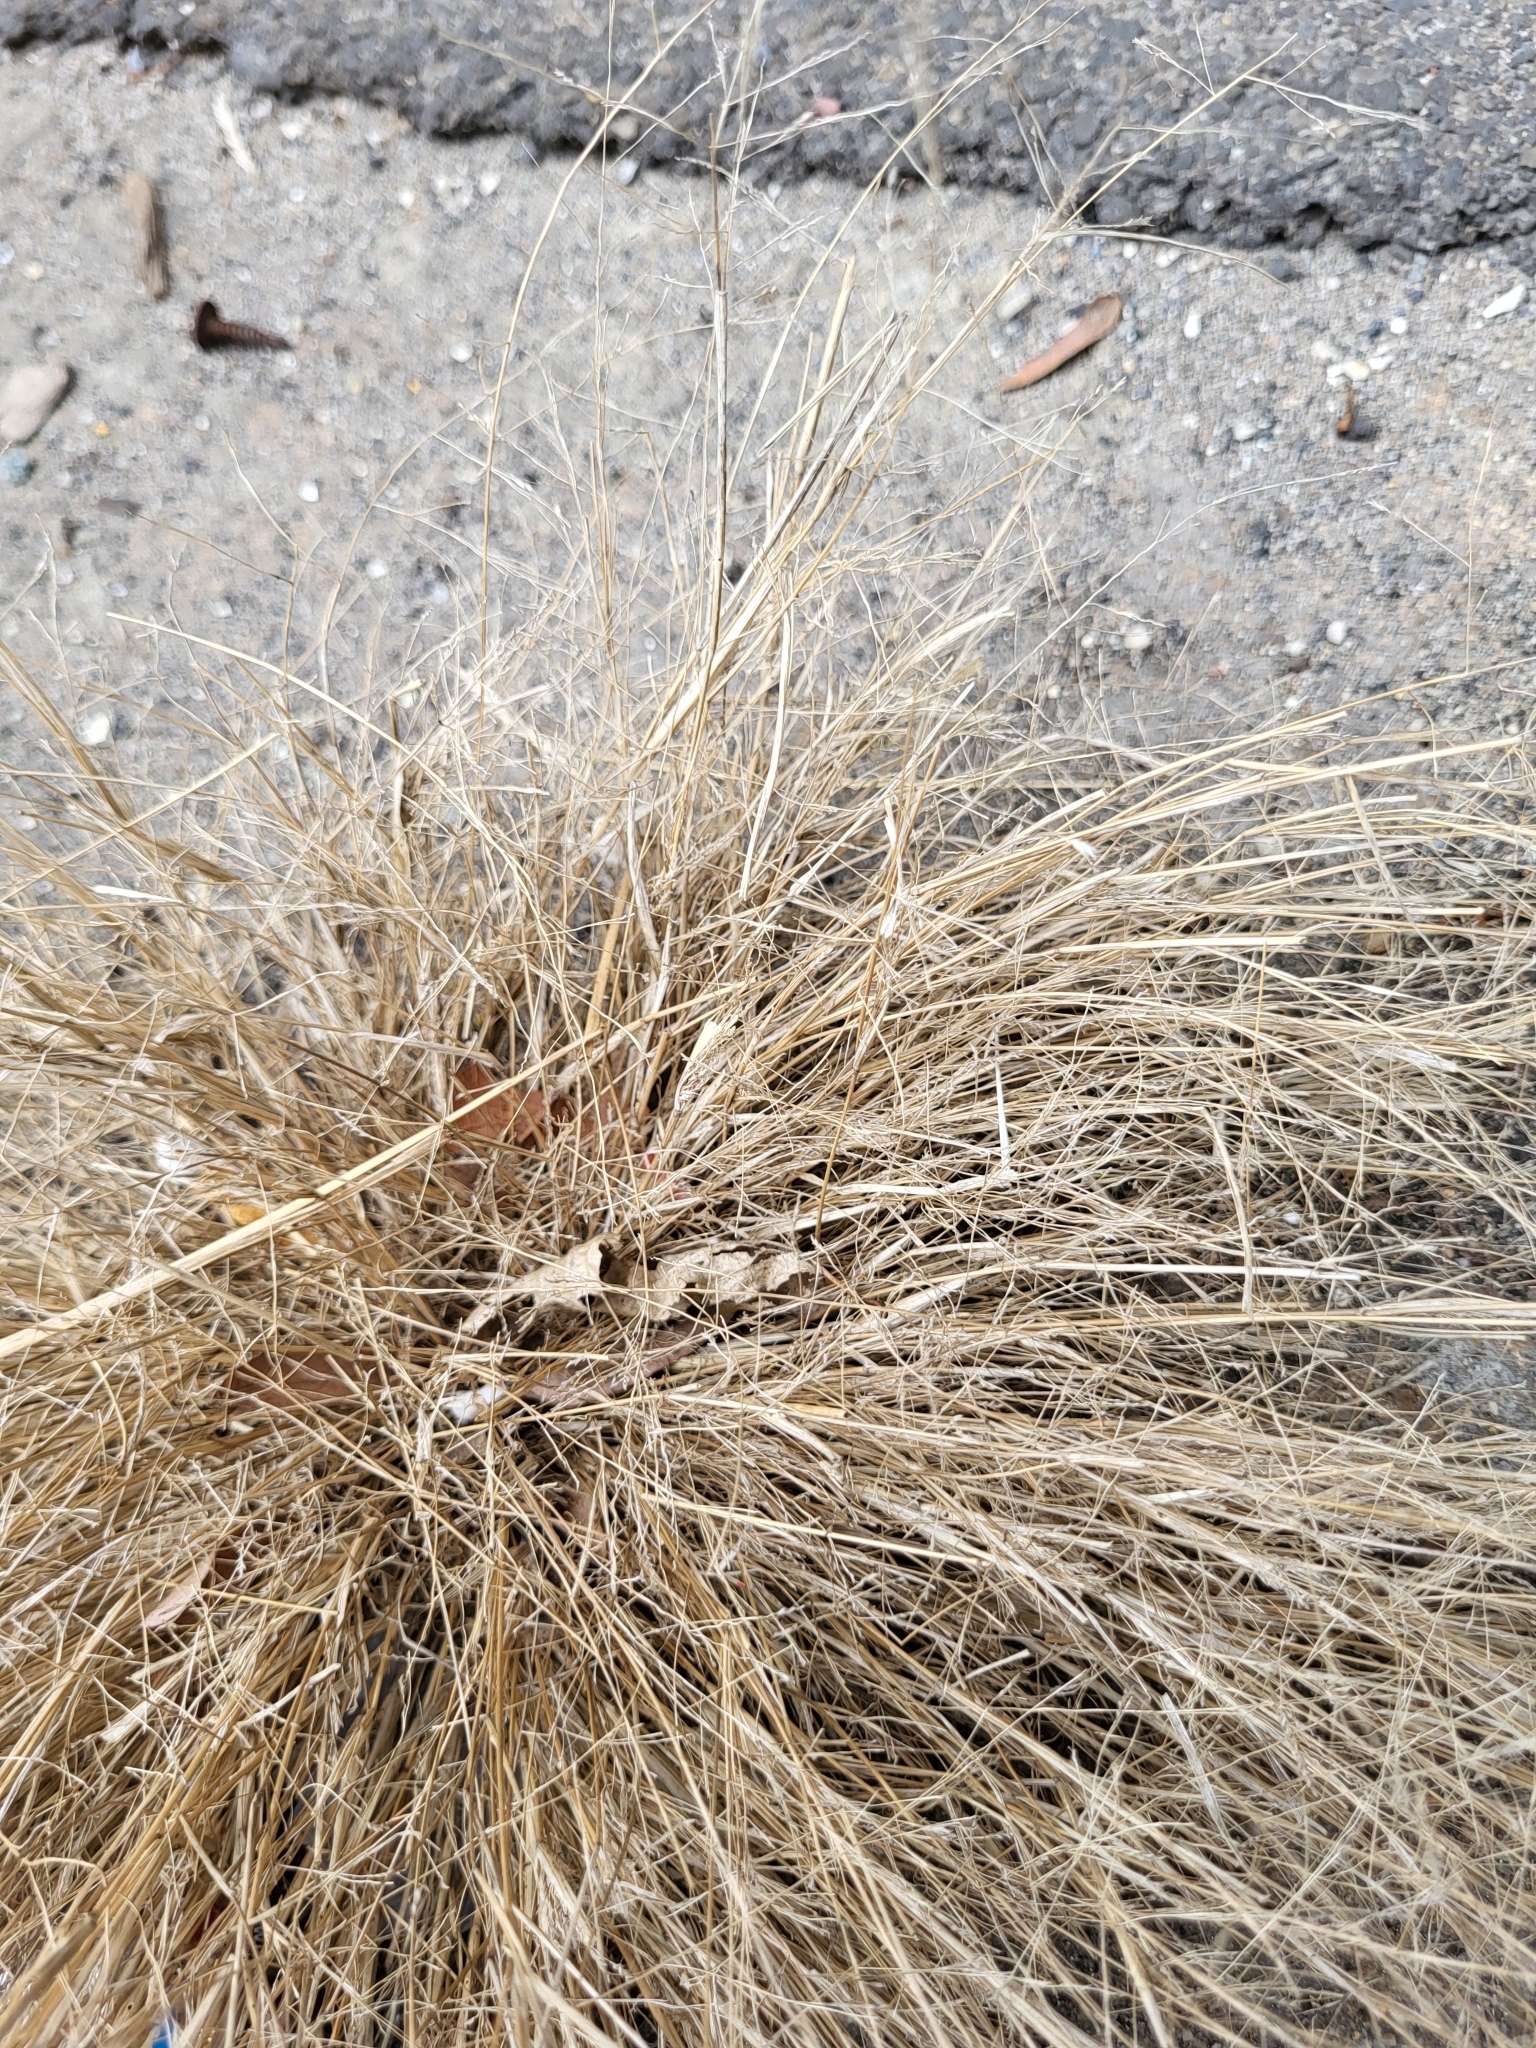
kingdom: Plantae
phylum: Tracheophyta
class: Liliopsida
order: Poales
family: Poaceae
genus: Eragrostis
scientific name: Eragrostis pectinacea
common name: Tufted lovegrass
